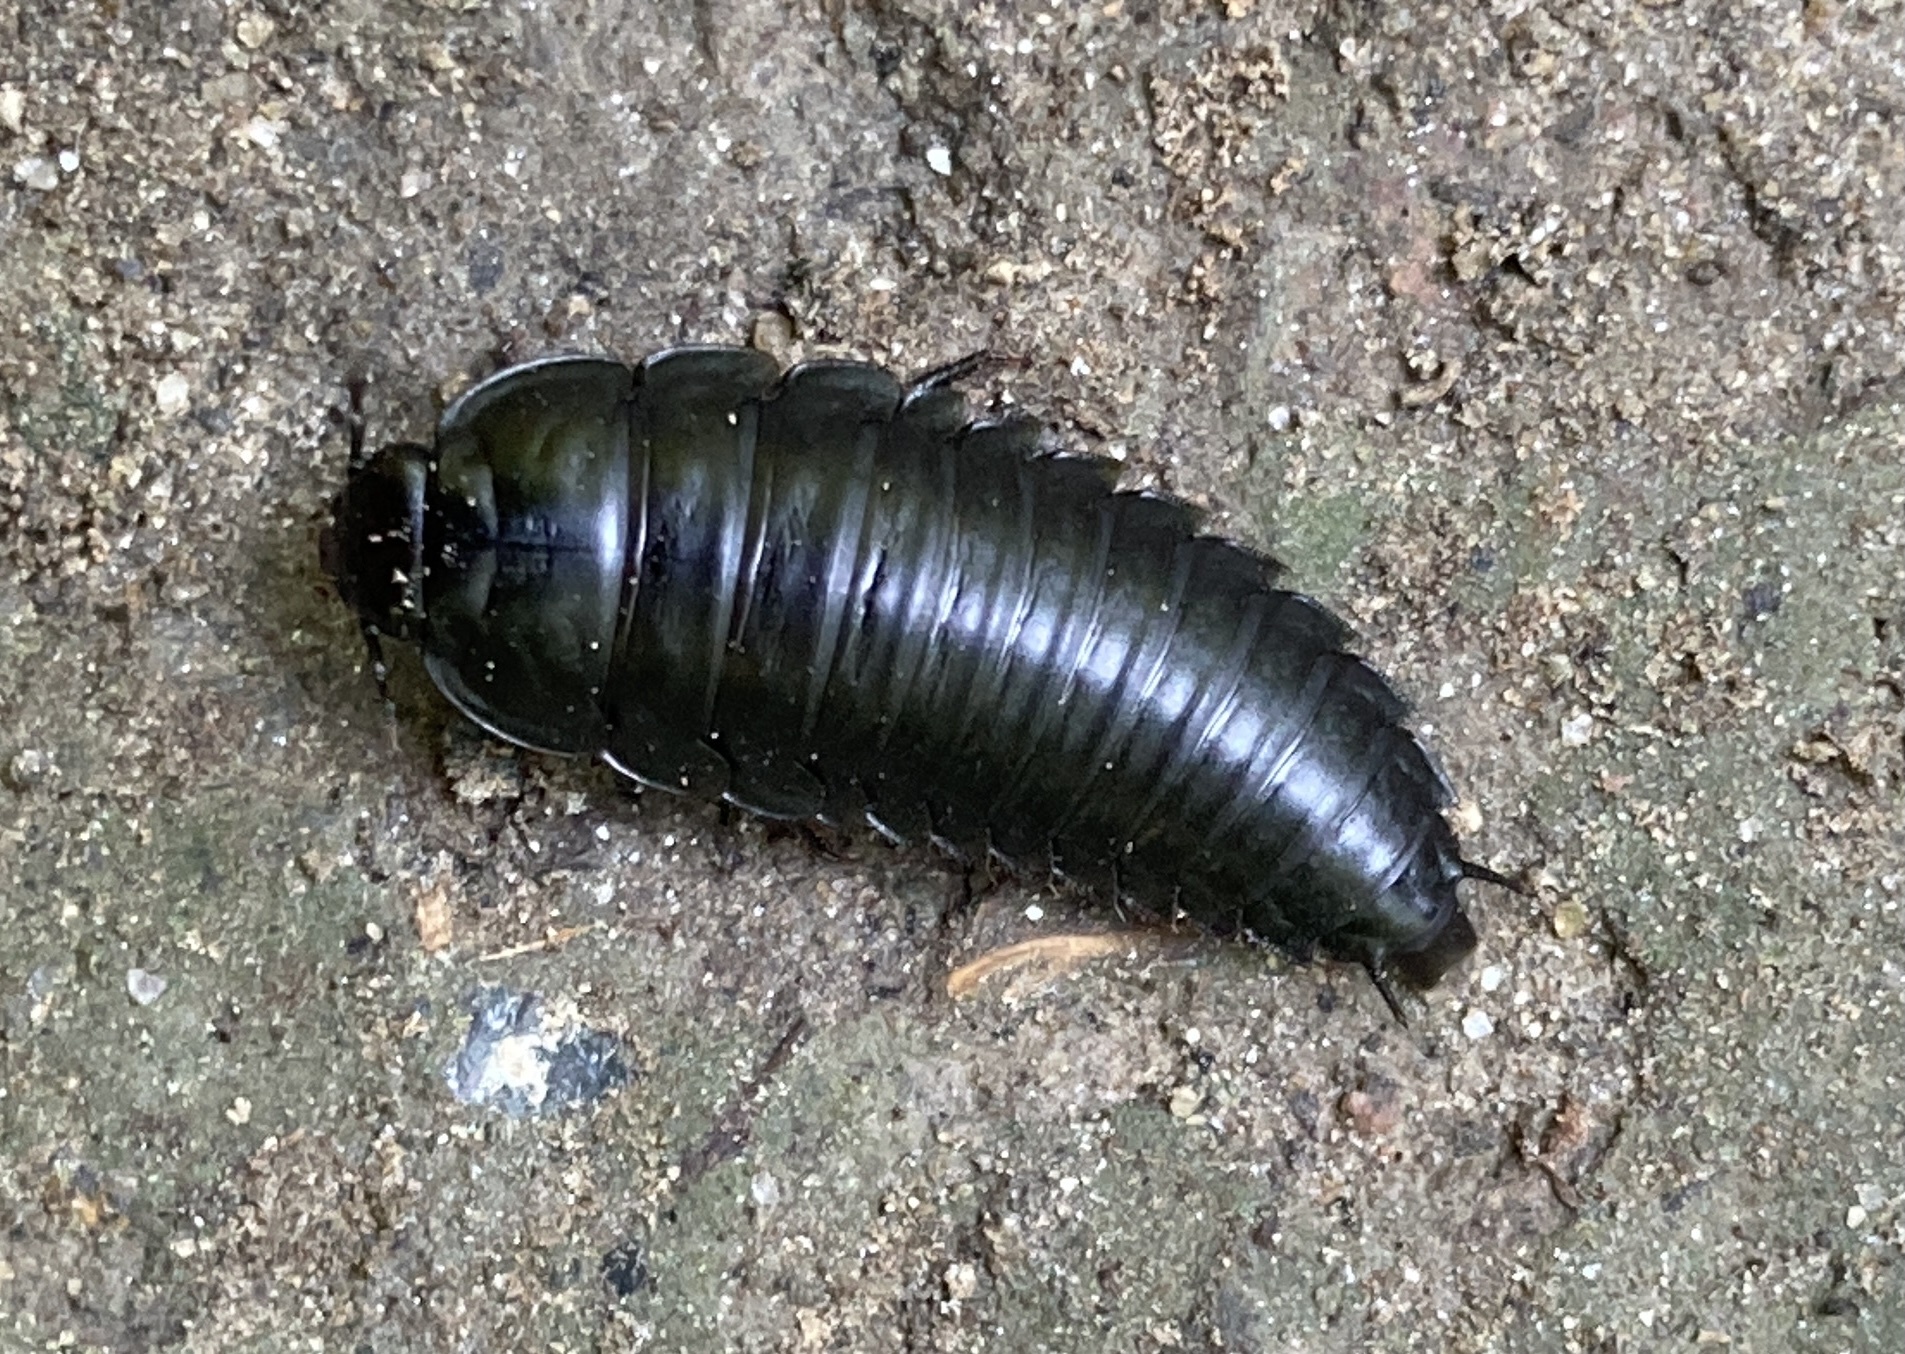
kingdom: Animalia
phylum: Arthropoda
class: Insecta
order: Coleoptera
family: Staphylinidae
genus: Necrophila
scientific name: Necrophila americana
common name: American carrion beetle
